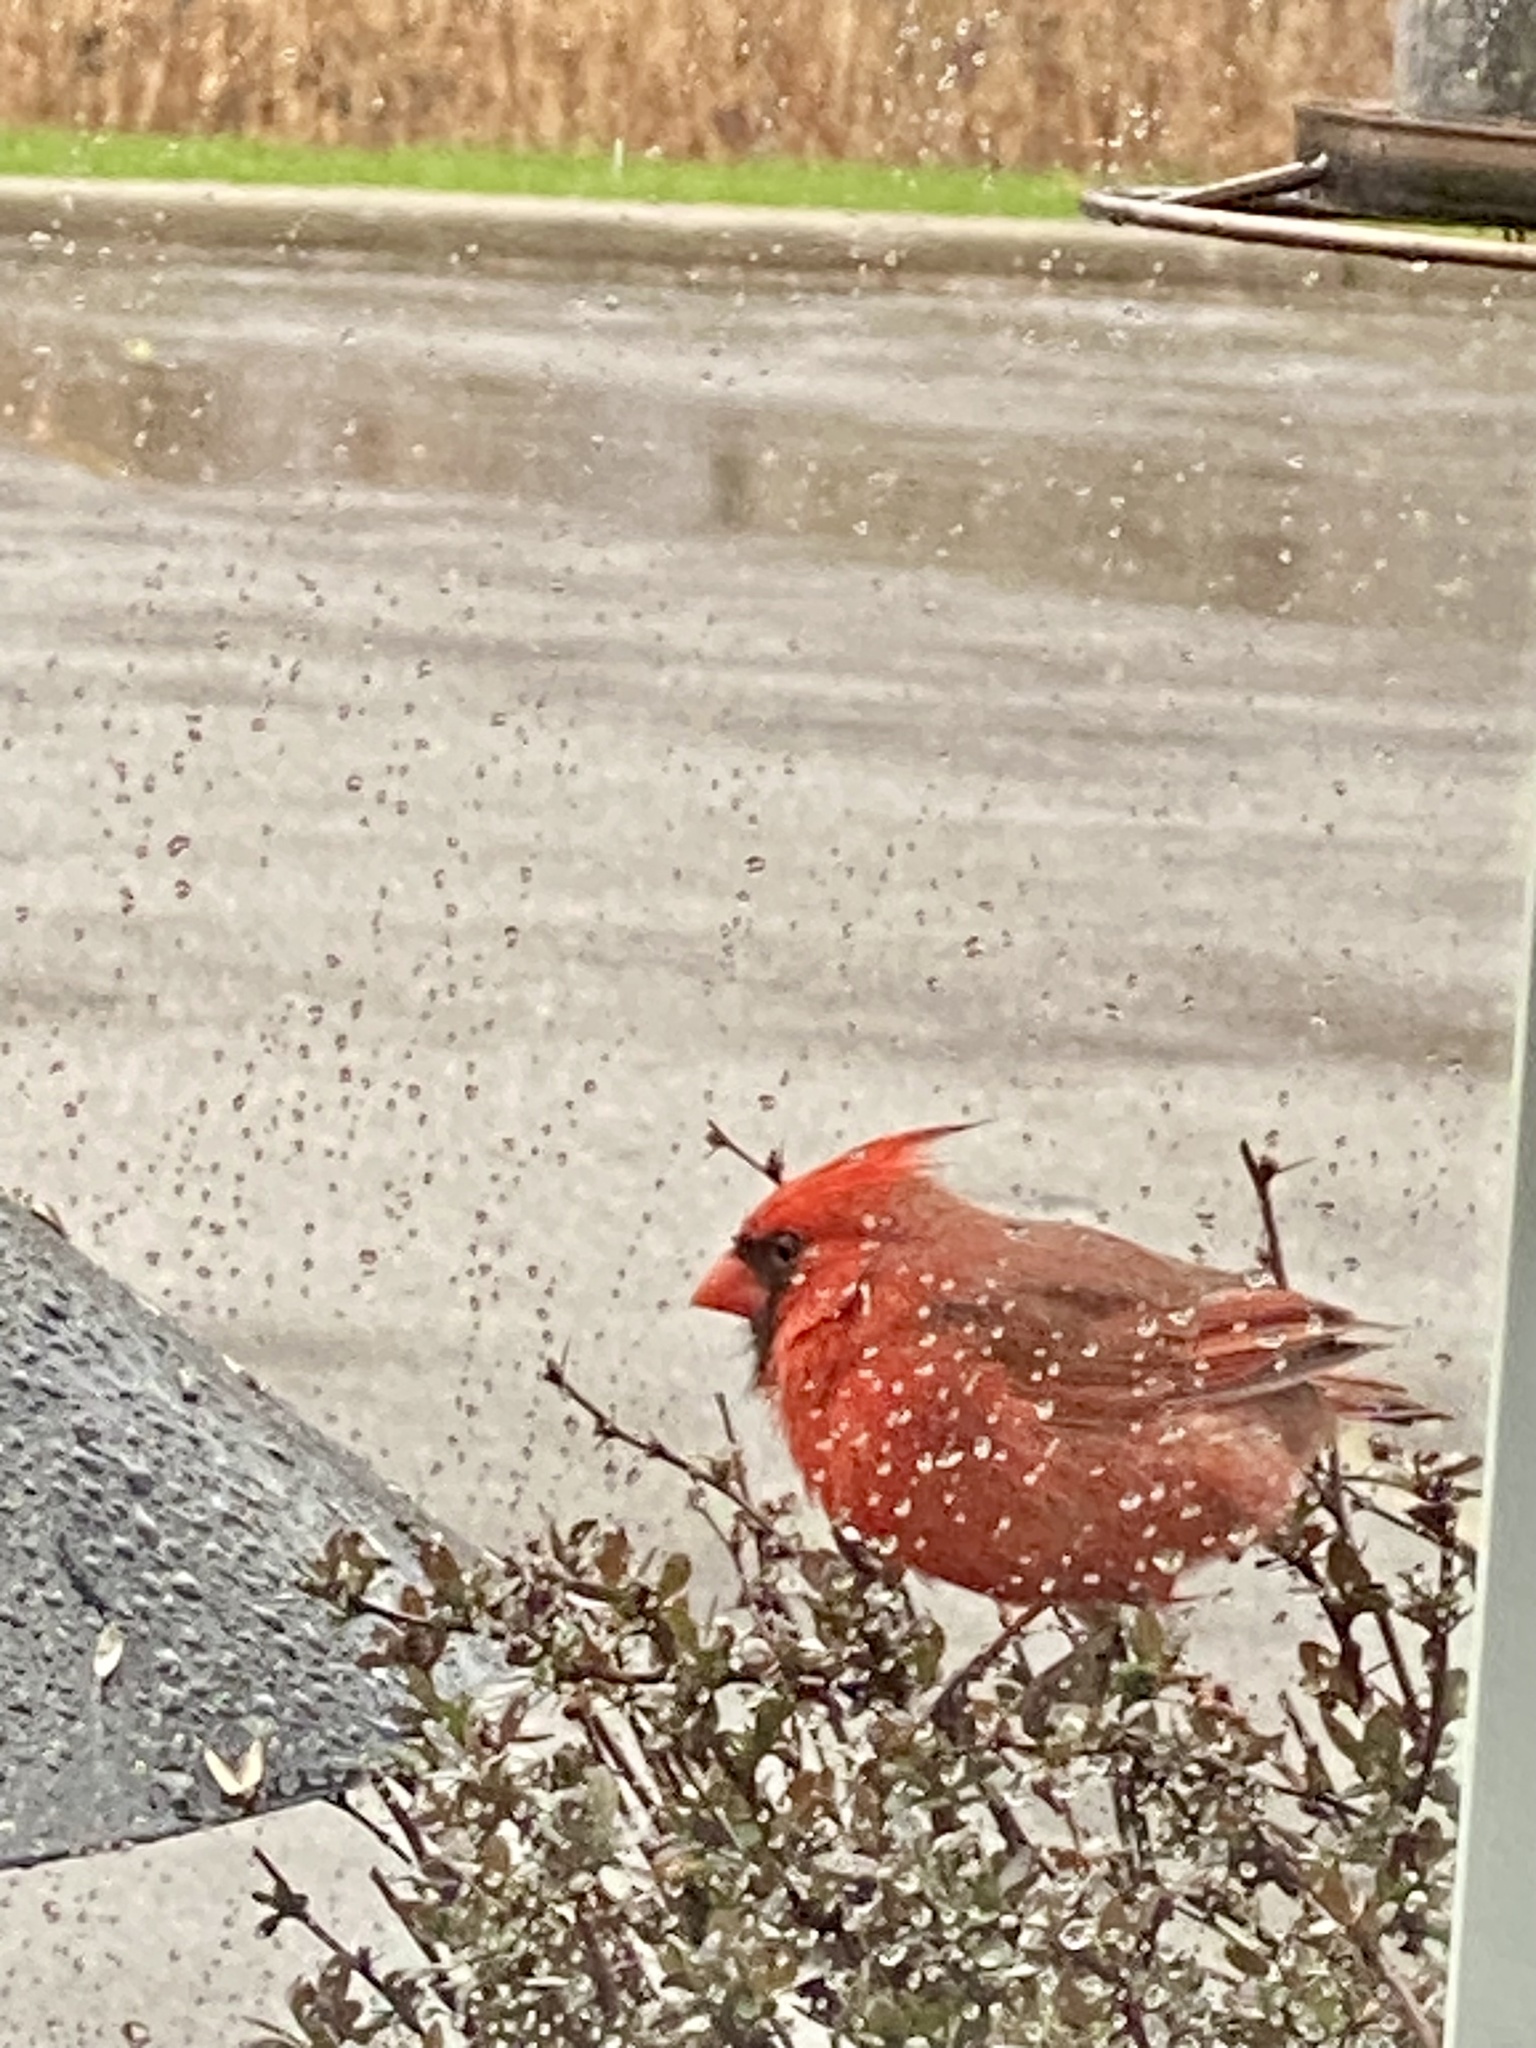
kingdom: Animalia
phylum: Chordata
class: Aves
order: Passeriformes
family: Cardinalidae
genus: Cardinalis
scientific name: Cardinalis cardinalis
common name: Northern cardinal
